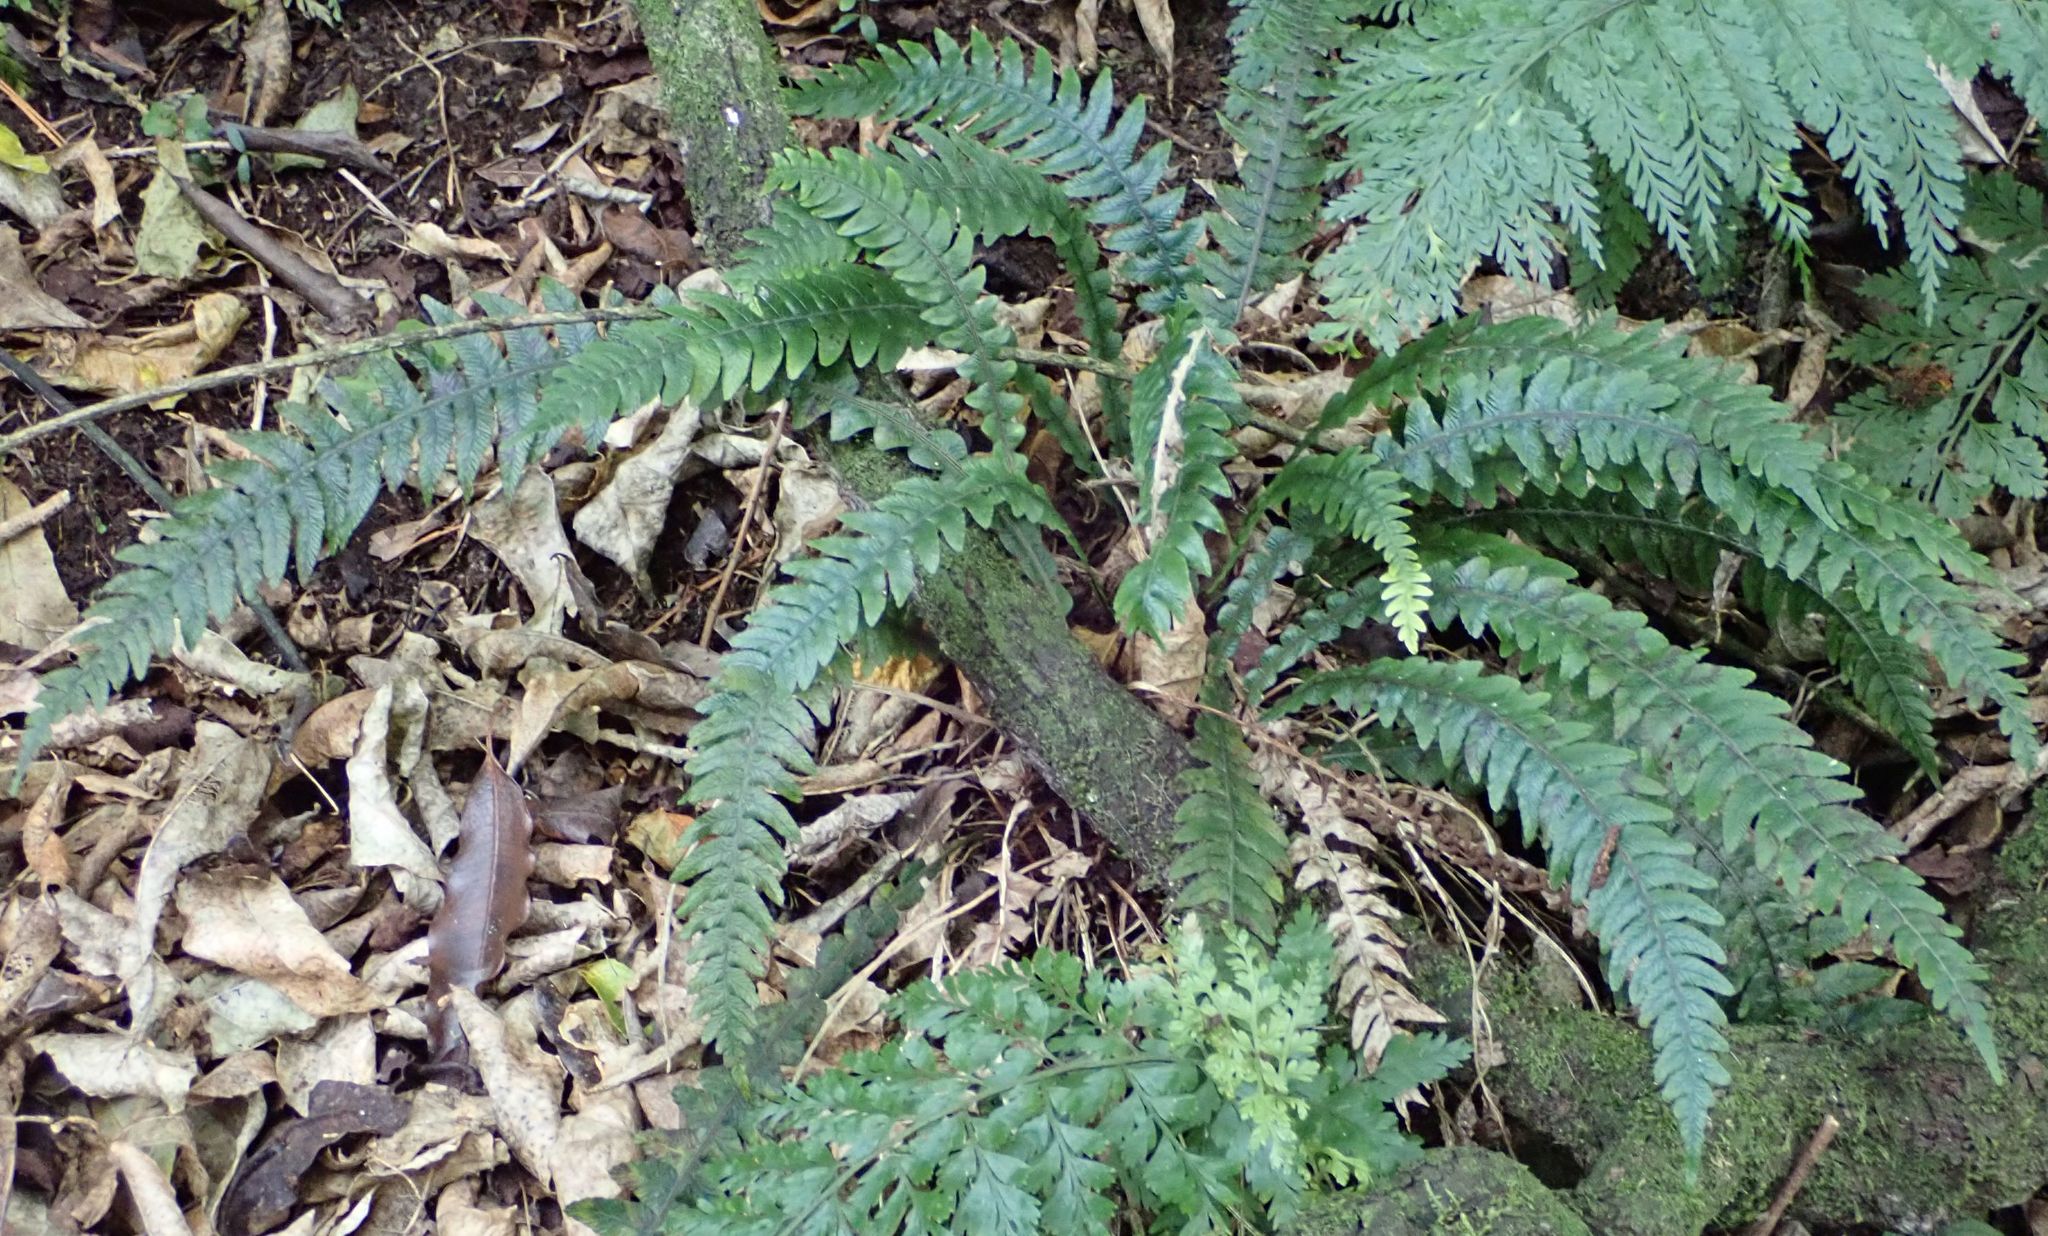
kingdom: Plantae
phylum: Tracheophyta
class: Polypodiopsida
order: Polypodiales
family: Blechnaceae
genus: Austroblechnum
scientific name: Austroblechnum lanceolatum
